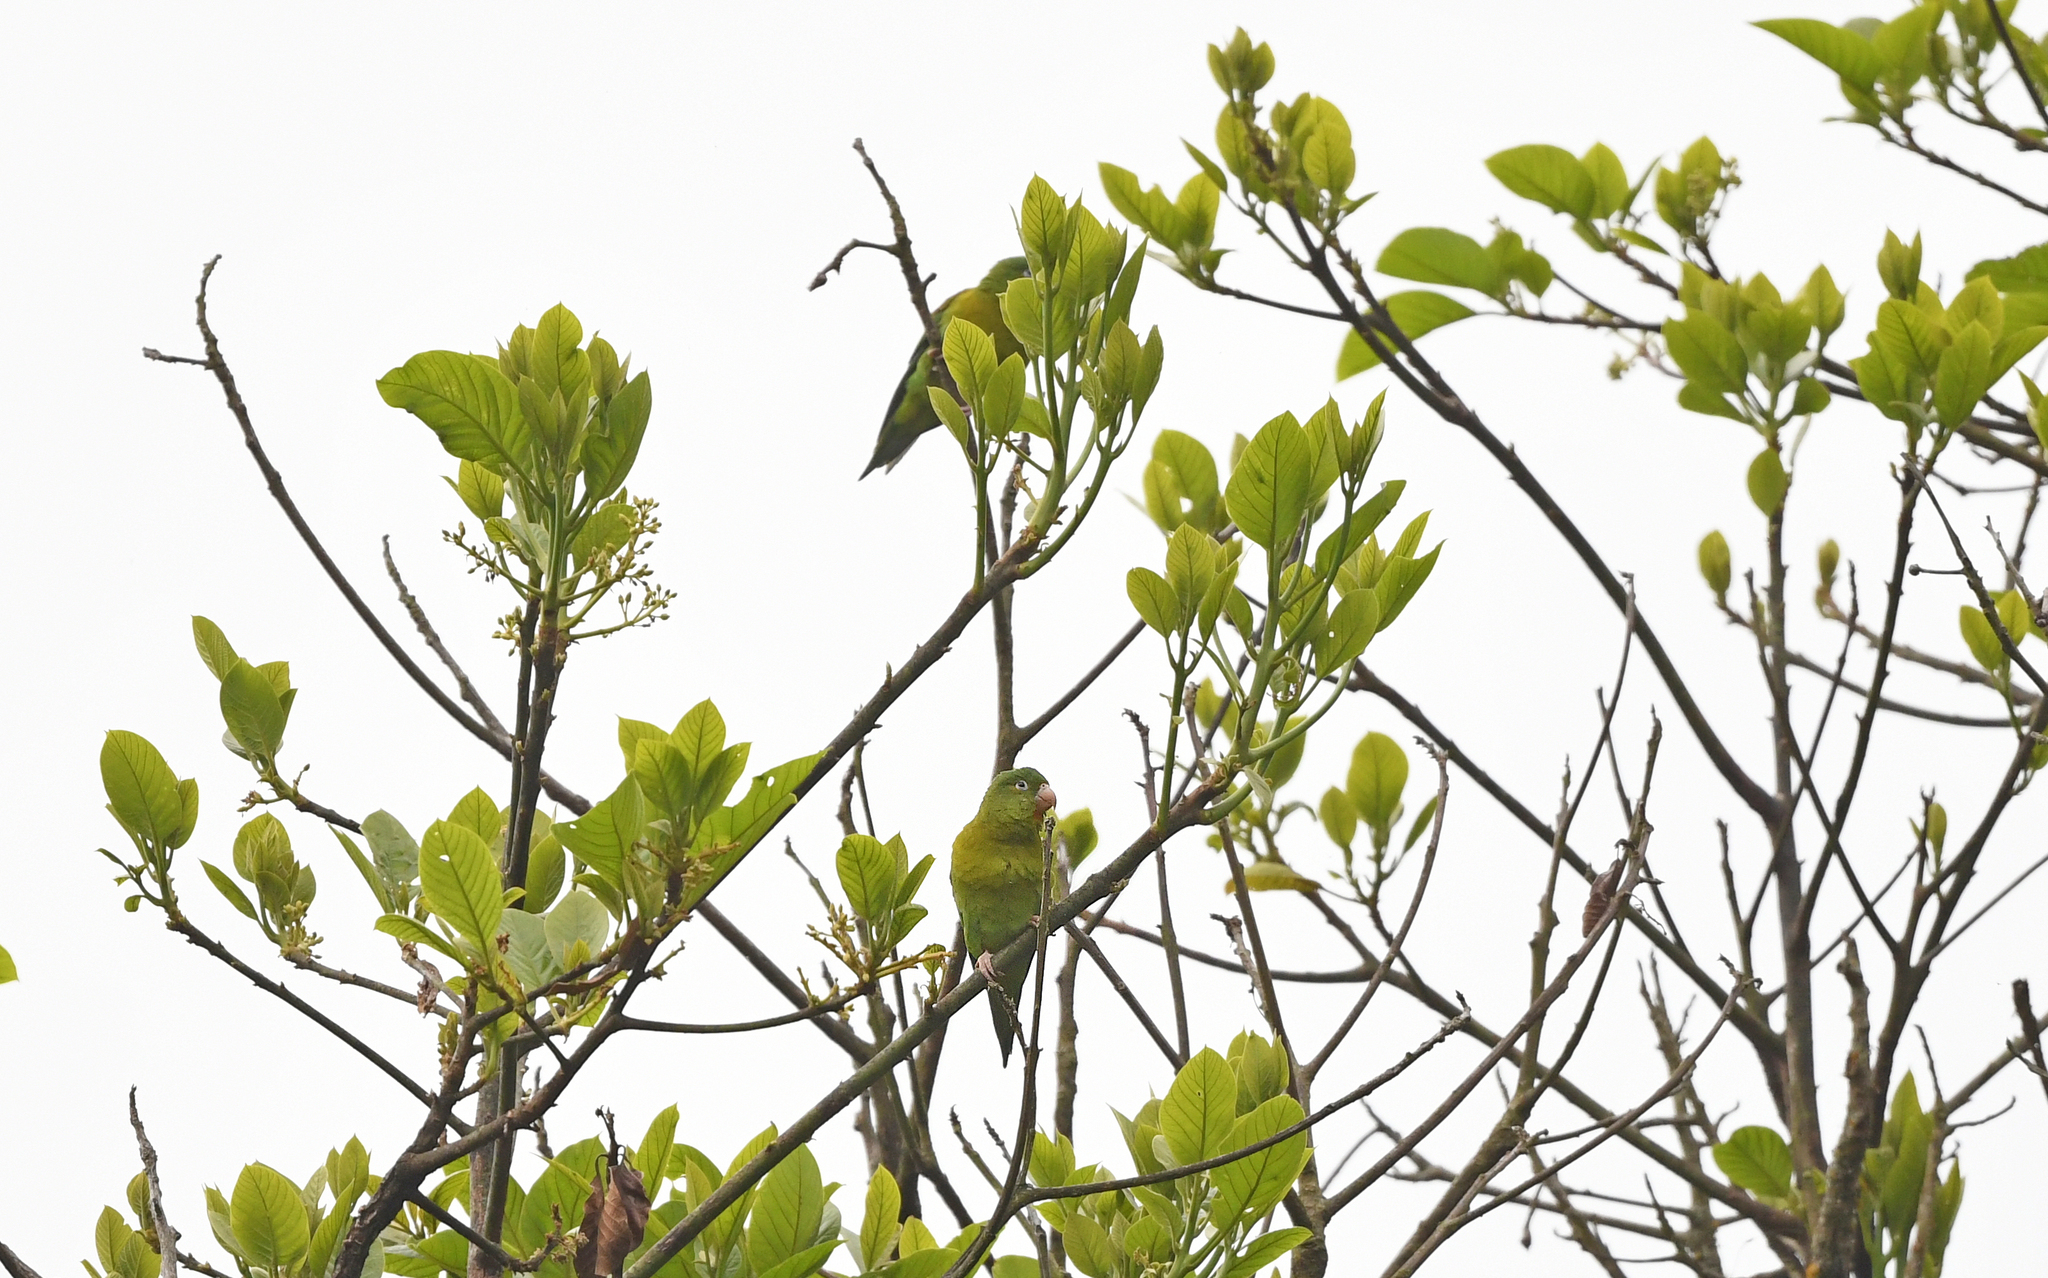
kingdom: Animalia
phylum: Chordata
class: Aves
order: Psittaciformes
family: Psittacidae
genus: Brotogeris
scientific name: Brotogeris jugularis
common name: Orange-chinned parakeet
